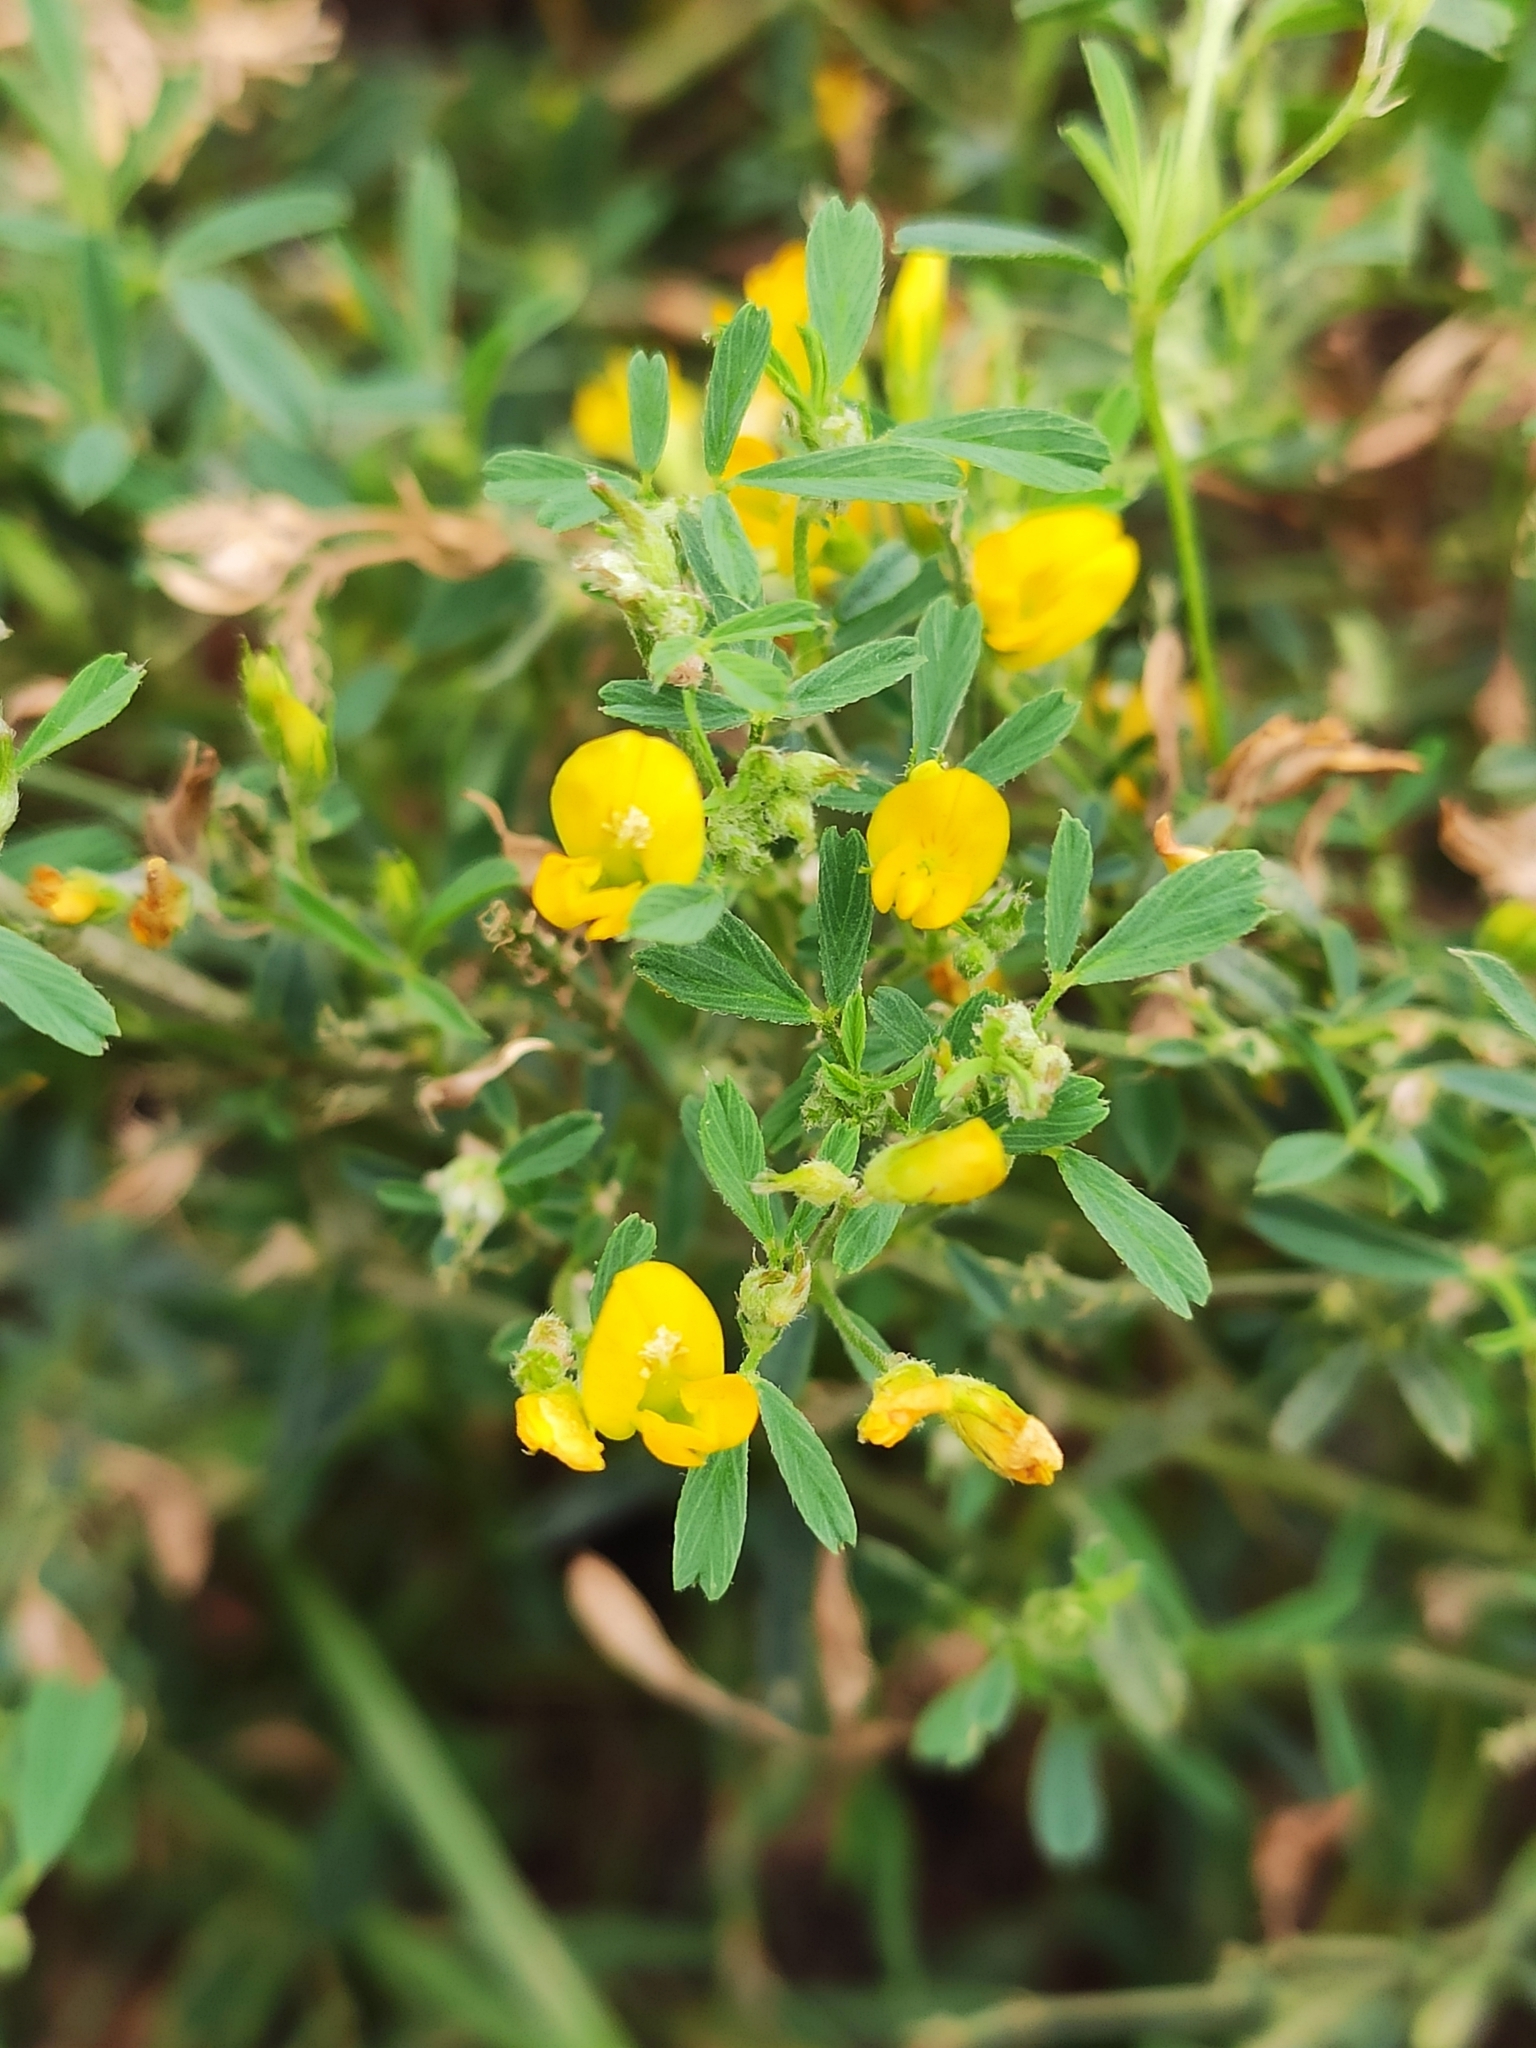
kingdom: Plantae
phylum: Tracheophyta
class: Magnoliopsida
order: Fabales
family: Fabaceae
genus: Medicago
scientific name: Medicago falcata
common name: Sickle medick
